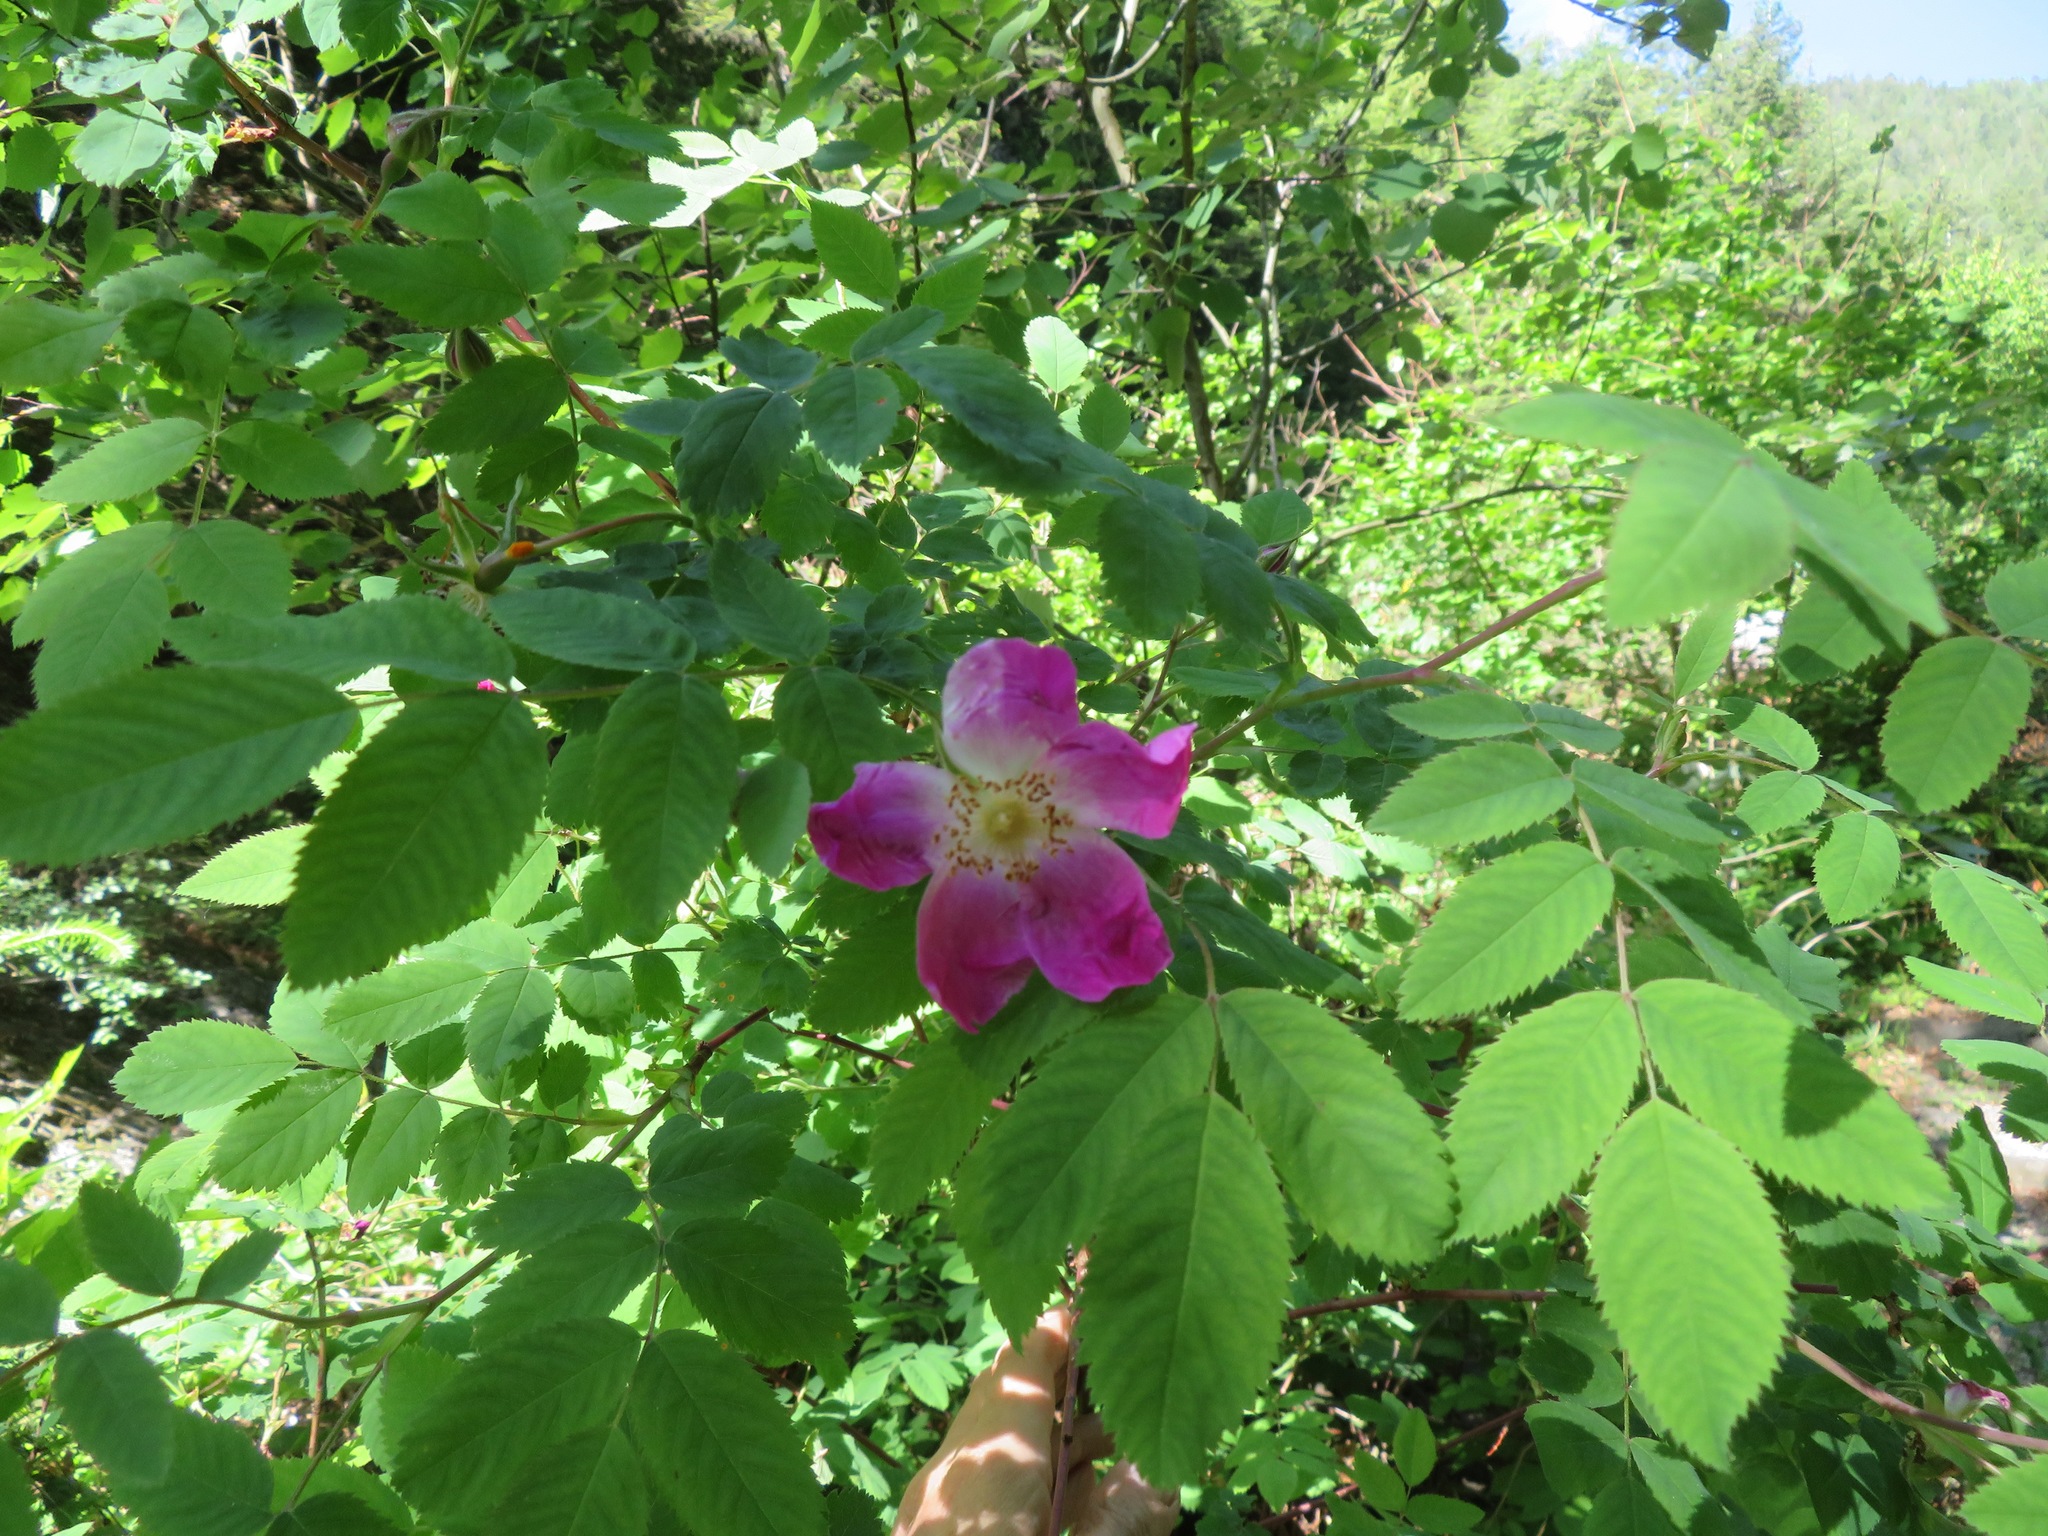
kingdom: Plantae
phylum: Tracheophyta
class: Magnoliopsida
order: Rosales
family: Rosaceae
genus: Rosa
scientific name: Rosa pendulina
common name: Alpine rose
